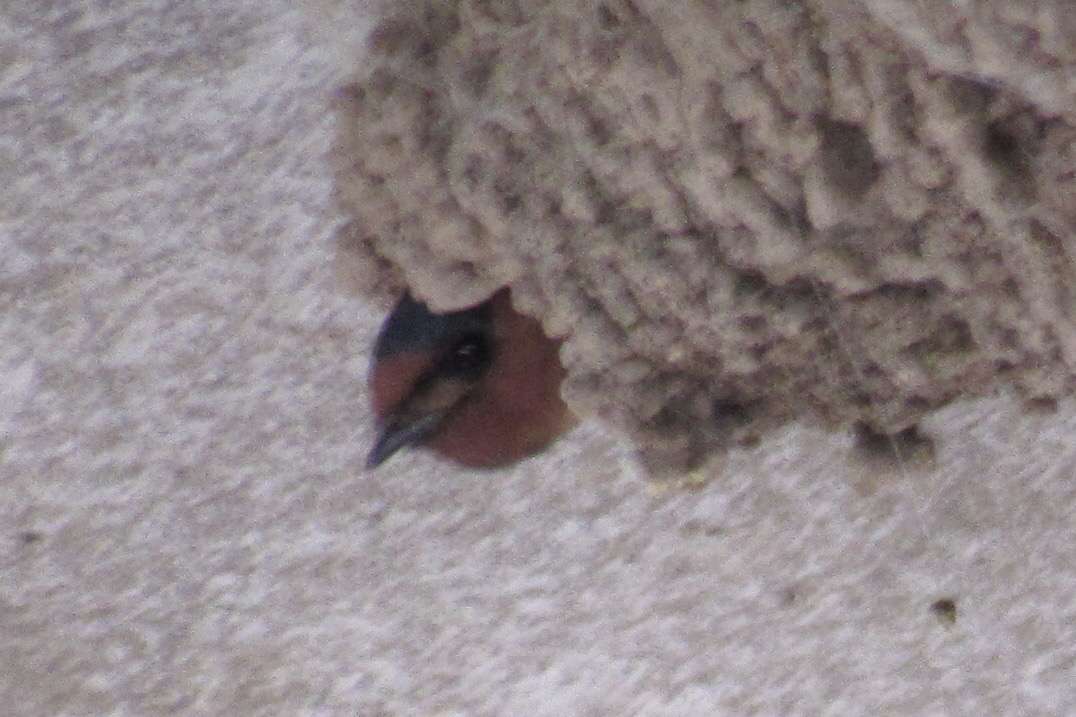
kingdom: Animalia
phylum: Chordata
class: Aves
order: Passeriformes
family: Hirundinidae
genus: Petrochelidon
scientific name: Petrochelidon pyrrhonota
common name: American cliff swallow
